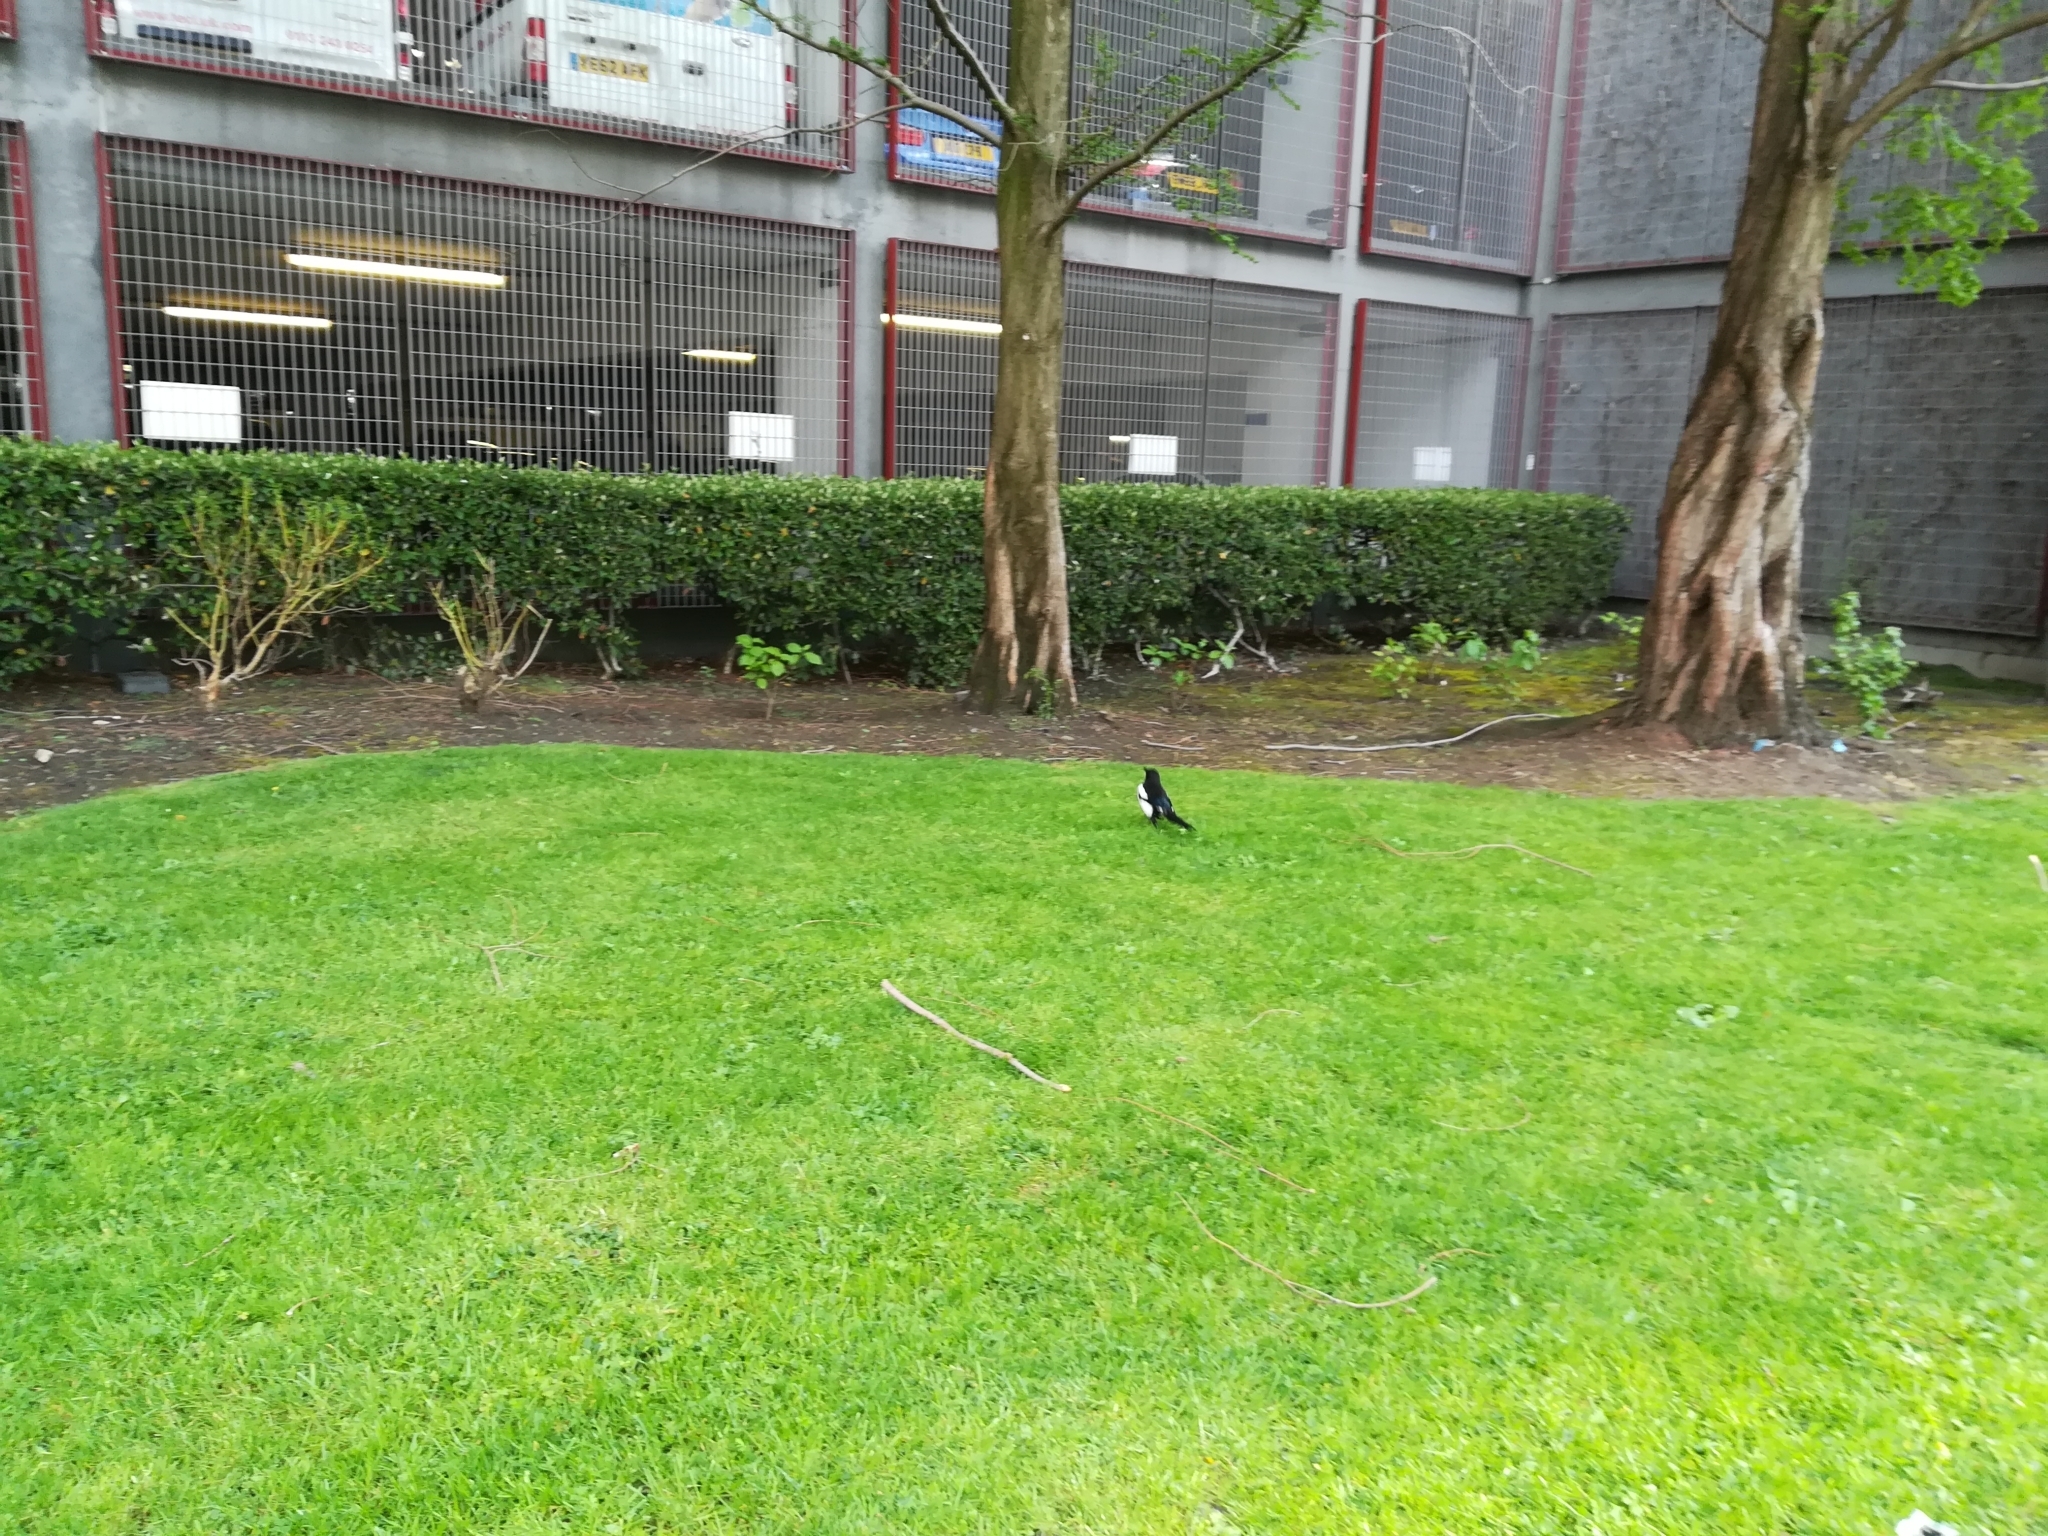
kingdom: Animalia
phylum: Chordata
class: Aves
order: Passeriformes
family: Corvidae
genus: Pica
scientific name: Pica pica
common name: Eurasian magpie
